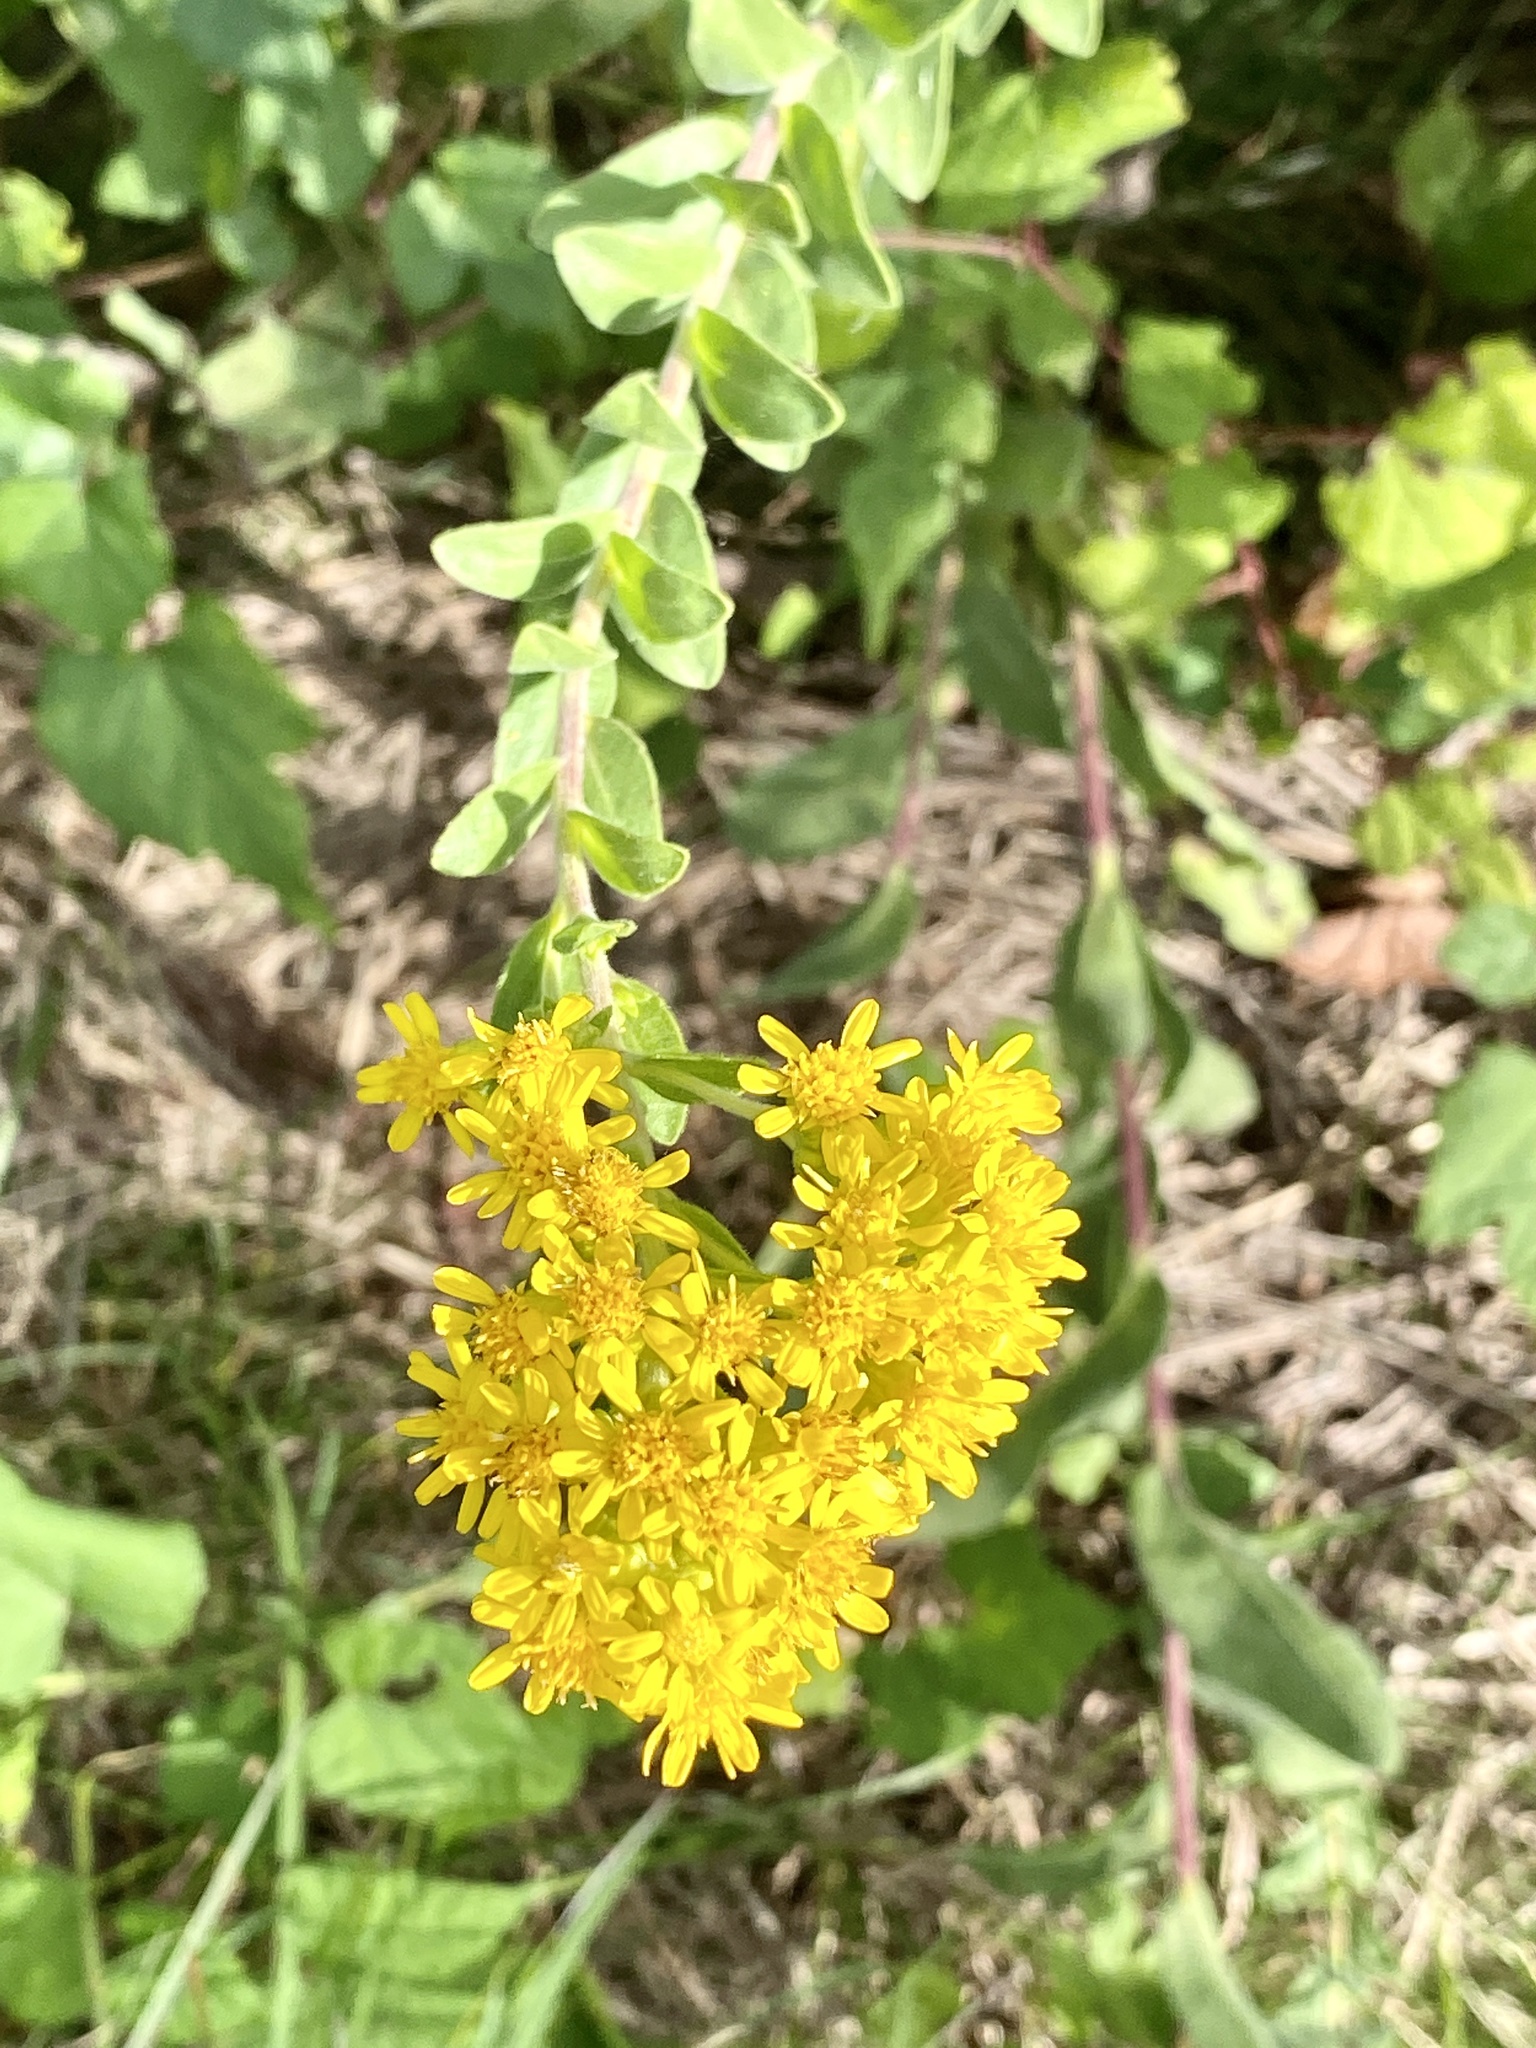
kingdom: Plantae
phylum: Tracheophyta
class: Magnoliopsida
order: Asterales
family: Asteraceae
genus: Solidago
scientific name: Solidago rigida
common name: Rigid goldenrod
